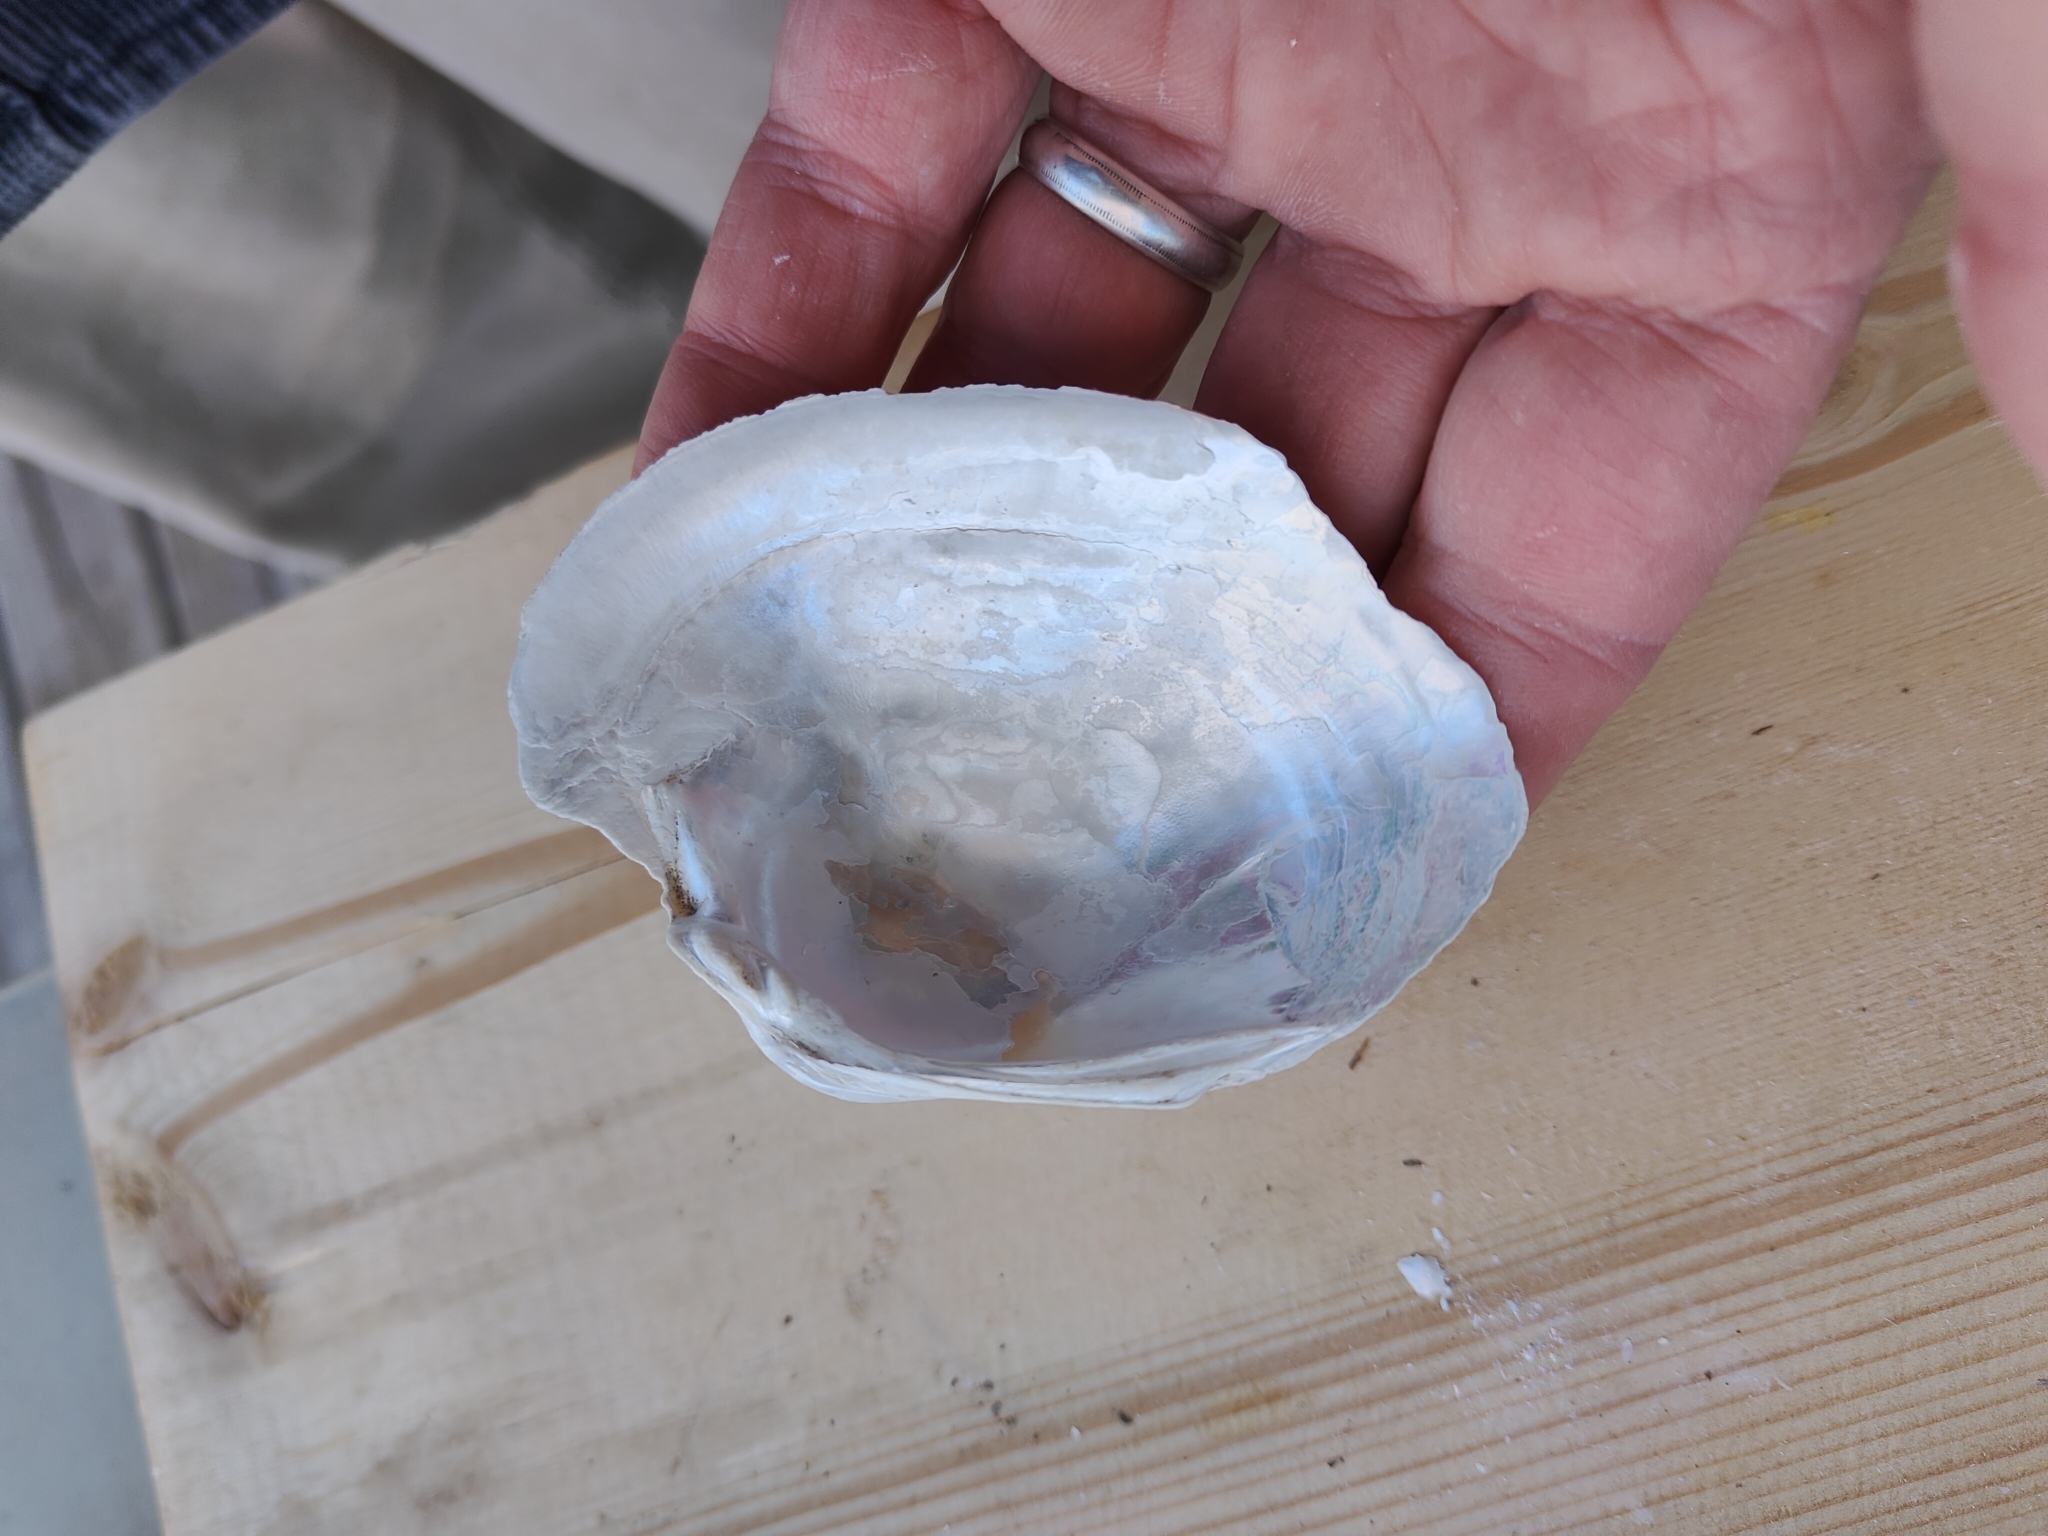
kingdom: Animalia
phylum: Mollusca
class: Bivalvia
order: Unionida
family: Unionidae
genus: Lampsilis
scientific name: Lampsilis cardium
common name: Plain pocketbook
